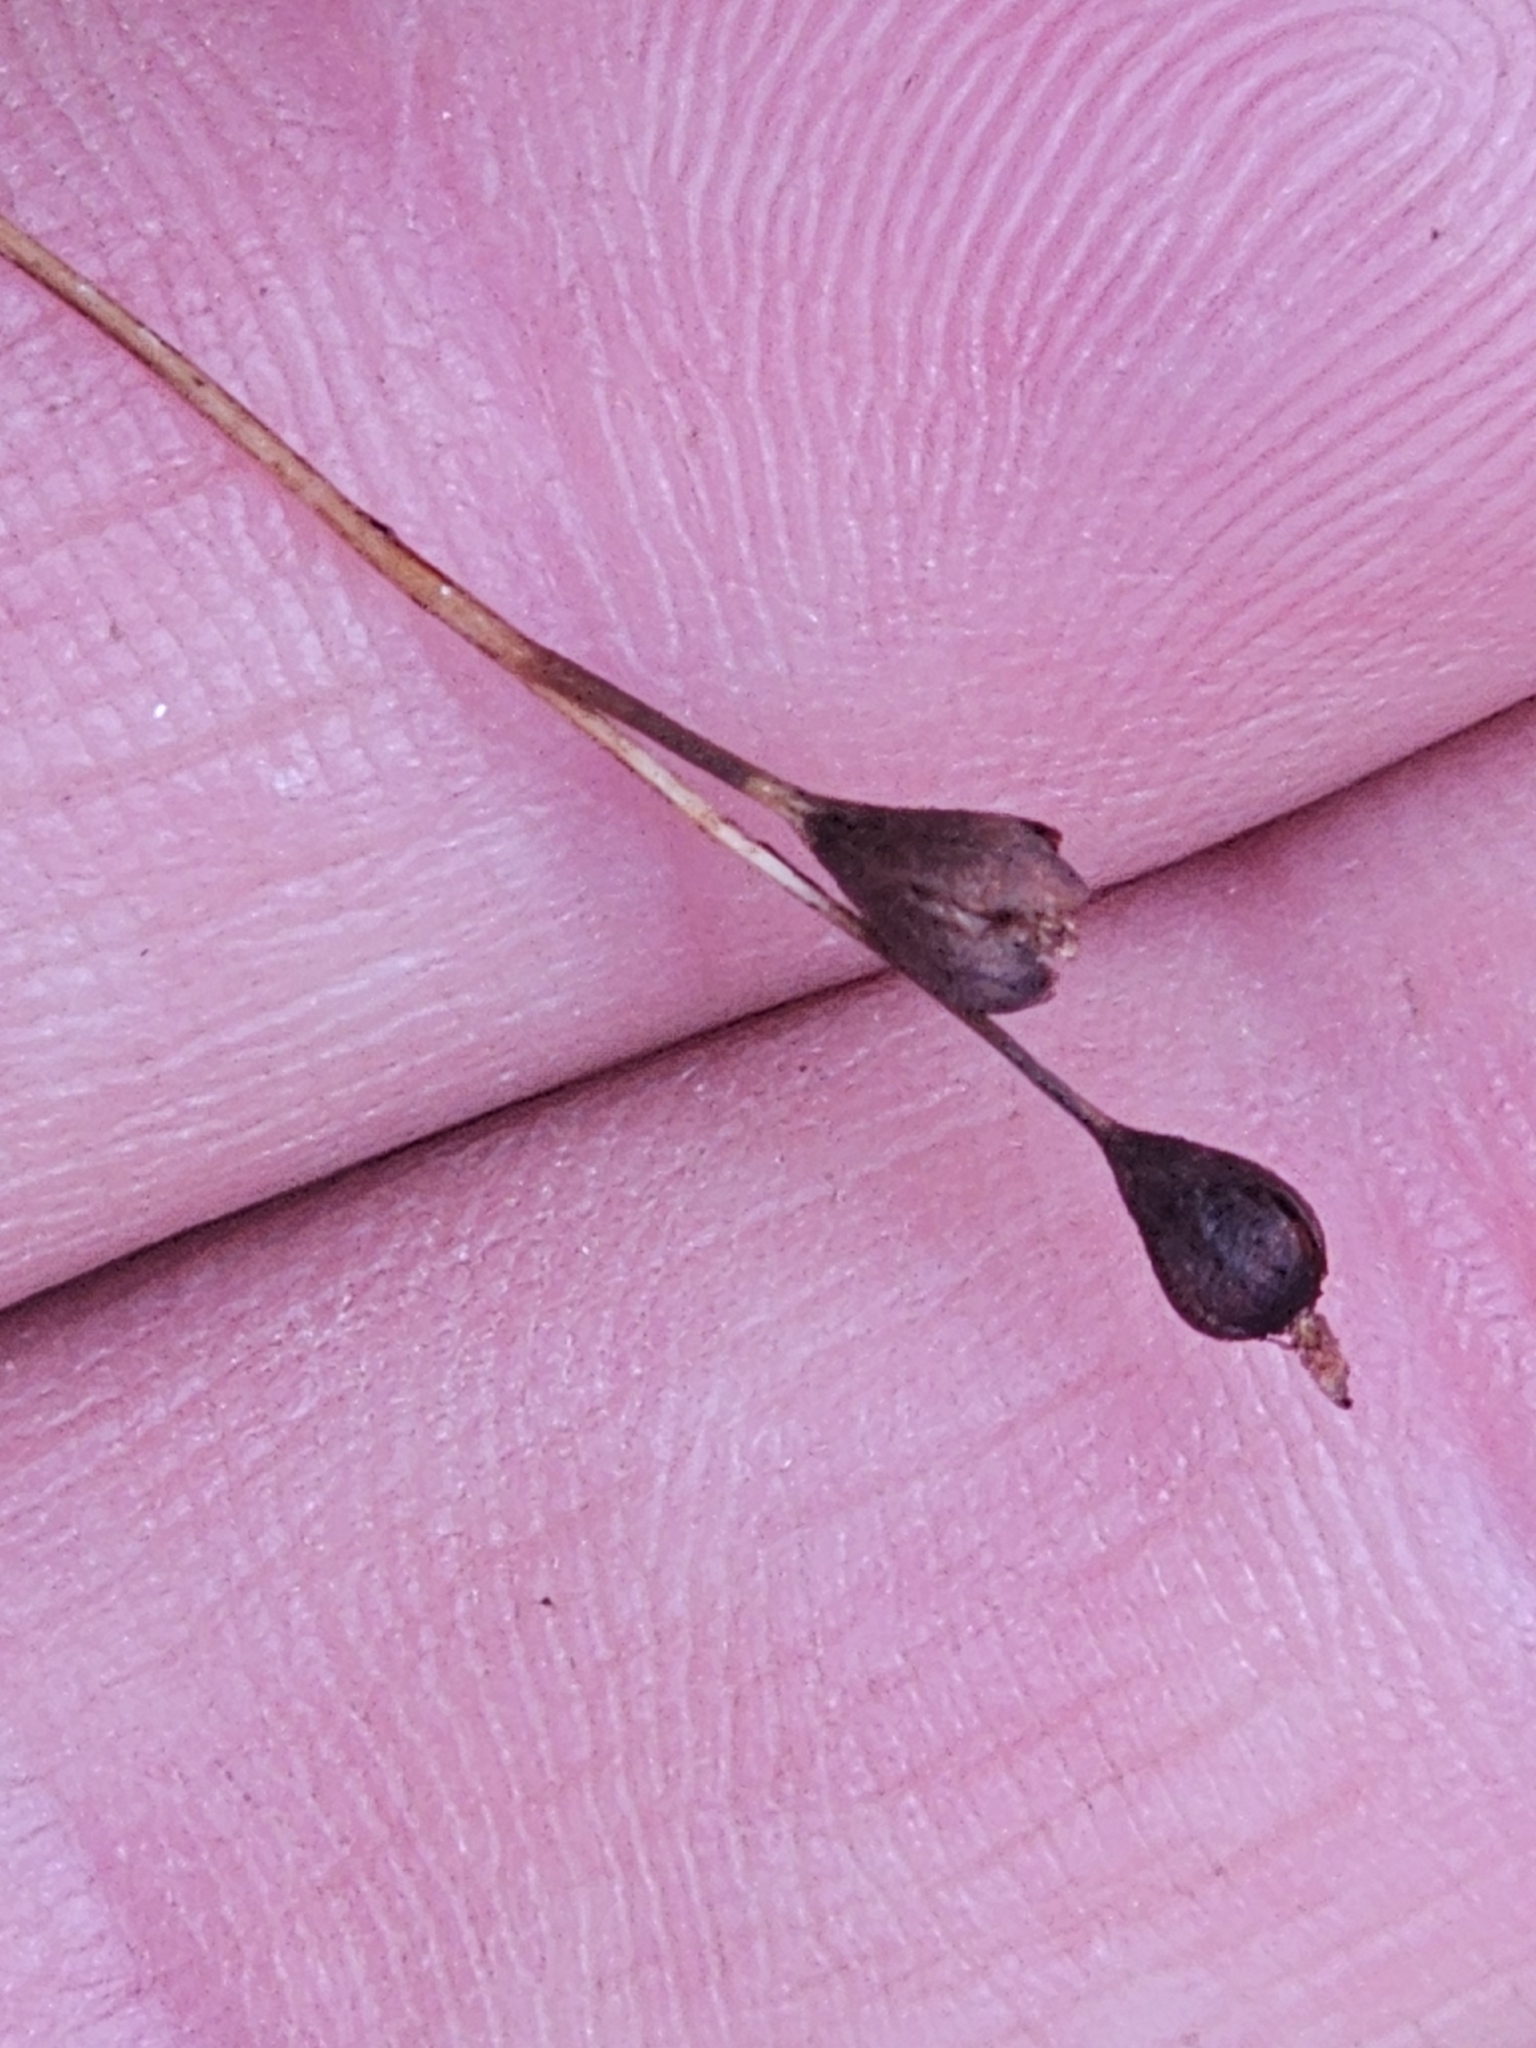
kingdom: Plantae
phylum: Tracheophyta
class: Magnoliopsida
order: Caryophyllales
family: Droseraceae
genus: Drosera
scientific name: Drosera spatulata
